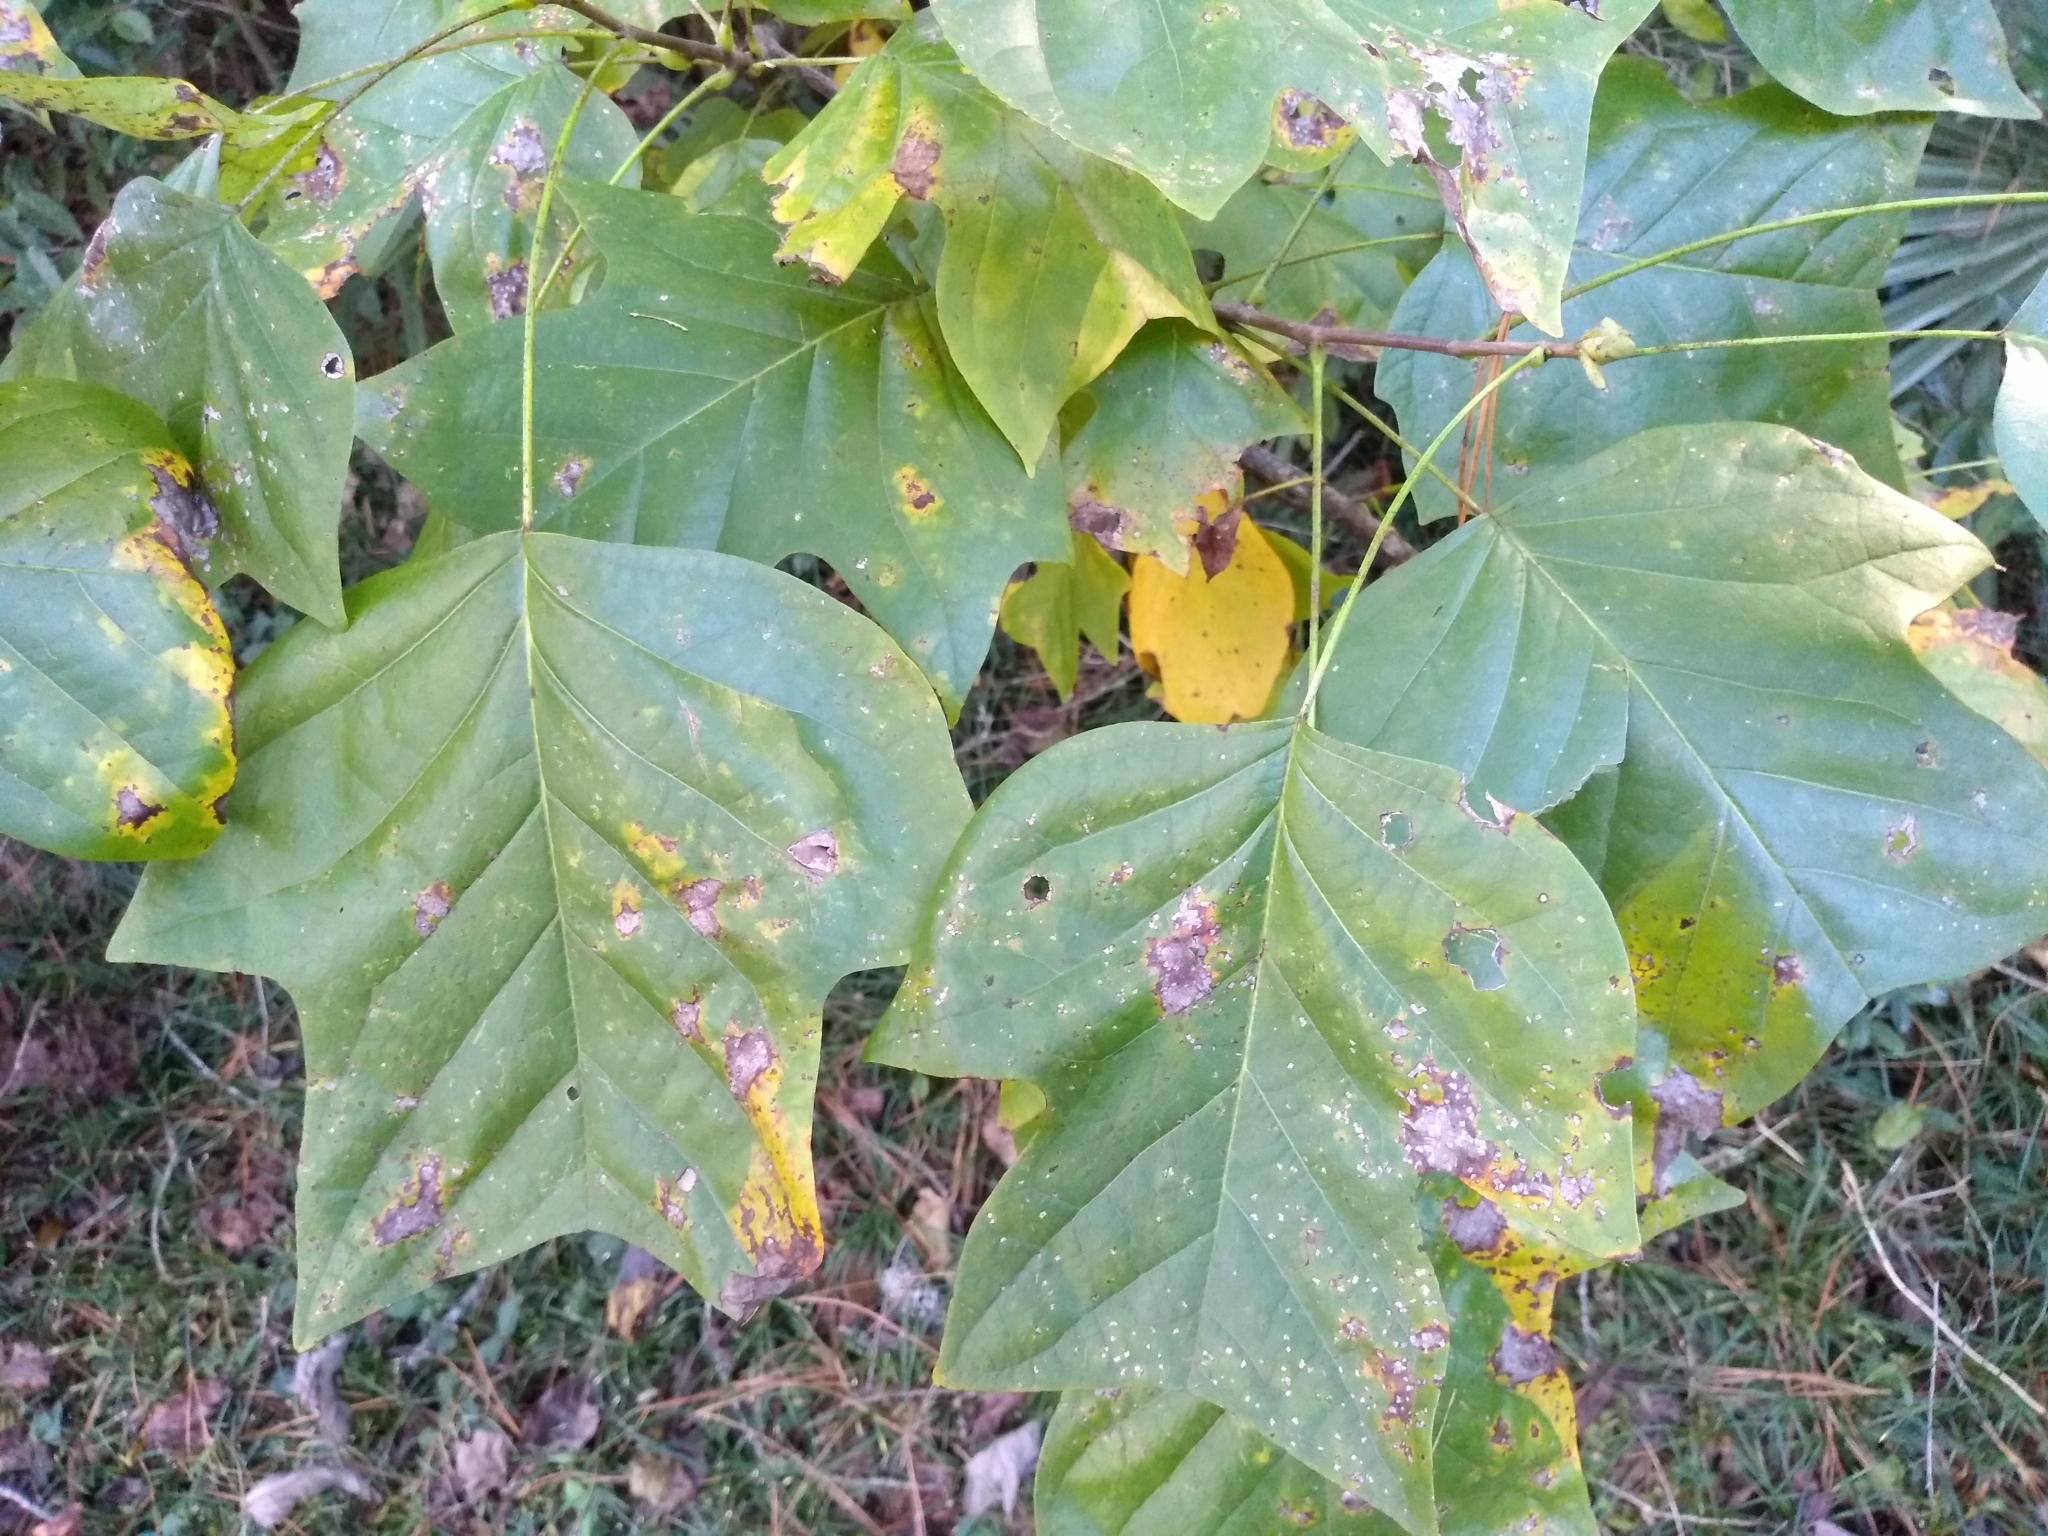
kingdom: Plantae
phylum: Tracheophyta
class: Magnoliopsida
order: Magnoliales
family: Magnoliaceae
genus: Liriodendron
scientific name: Liriodendron tulipifera
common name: Tulip tree
